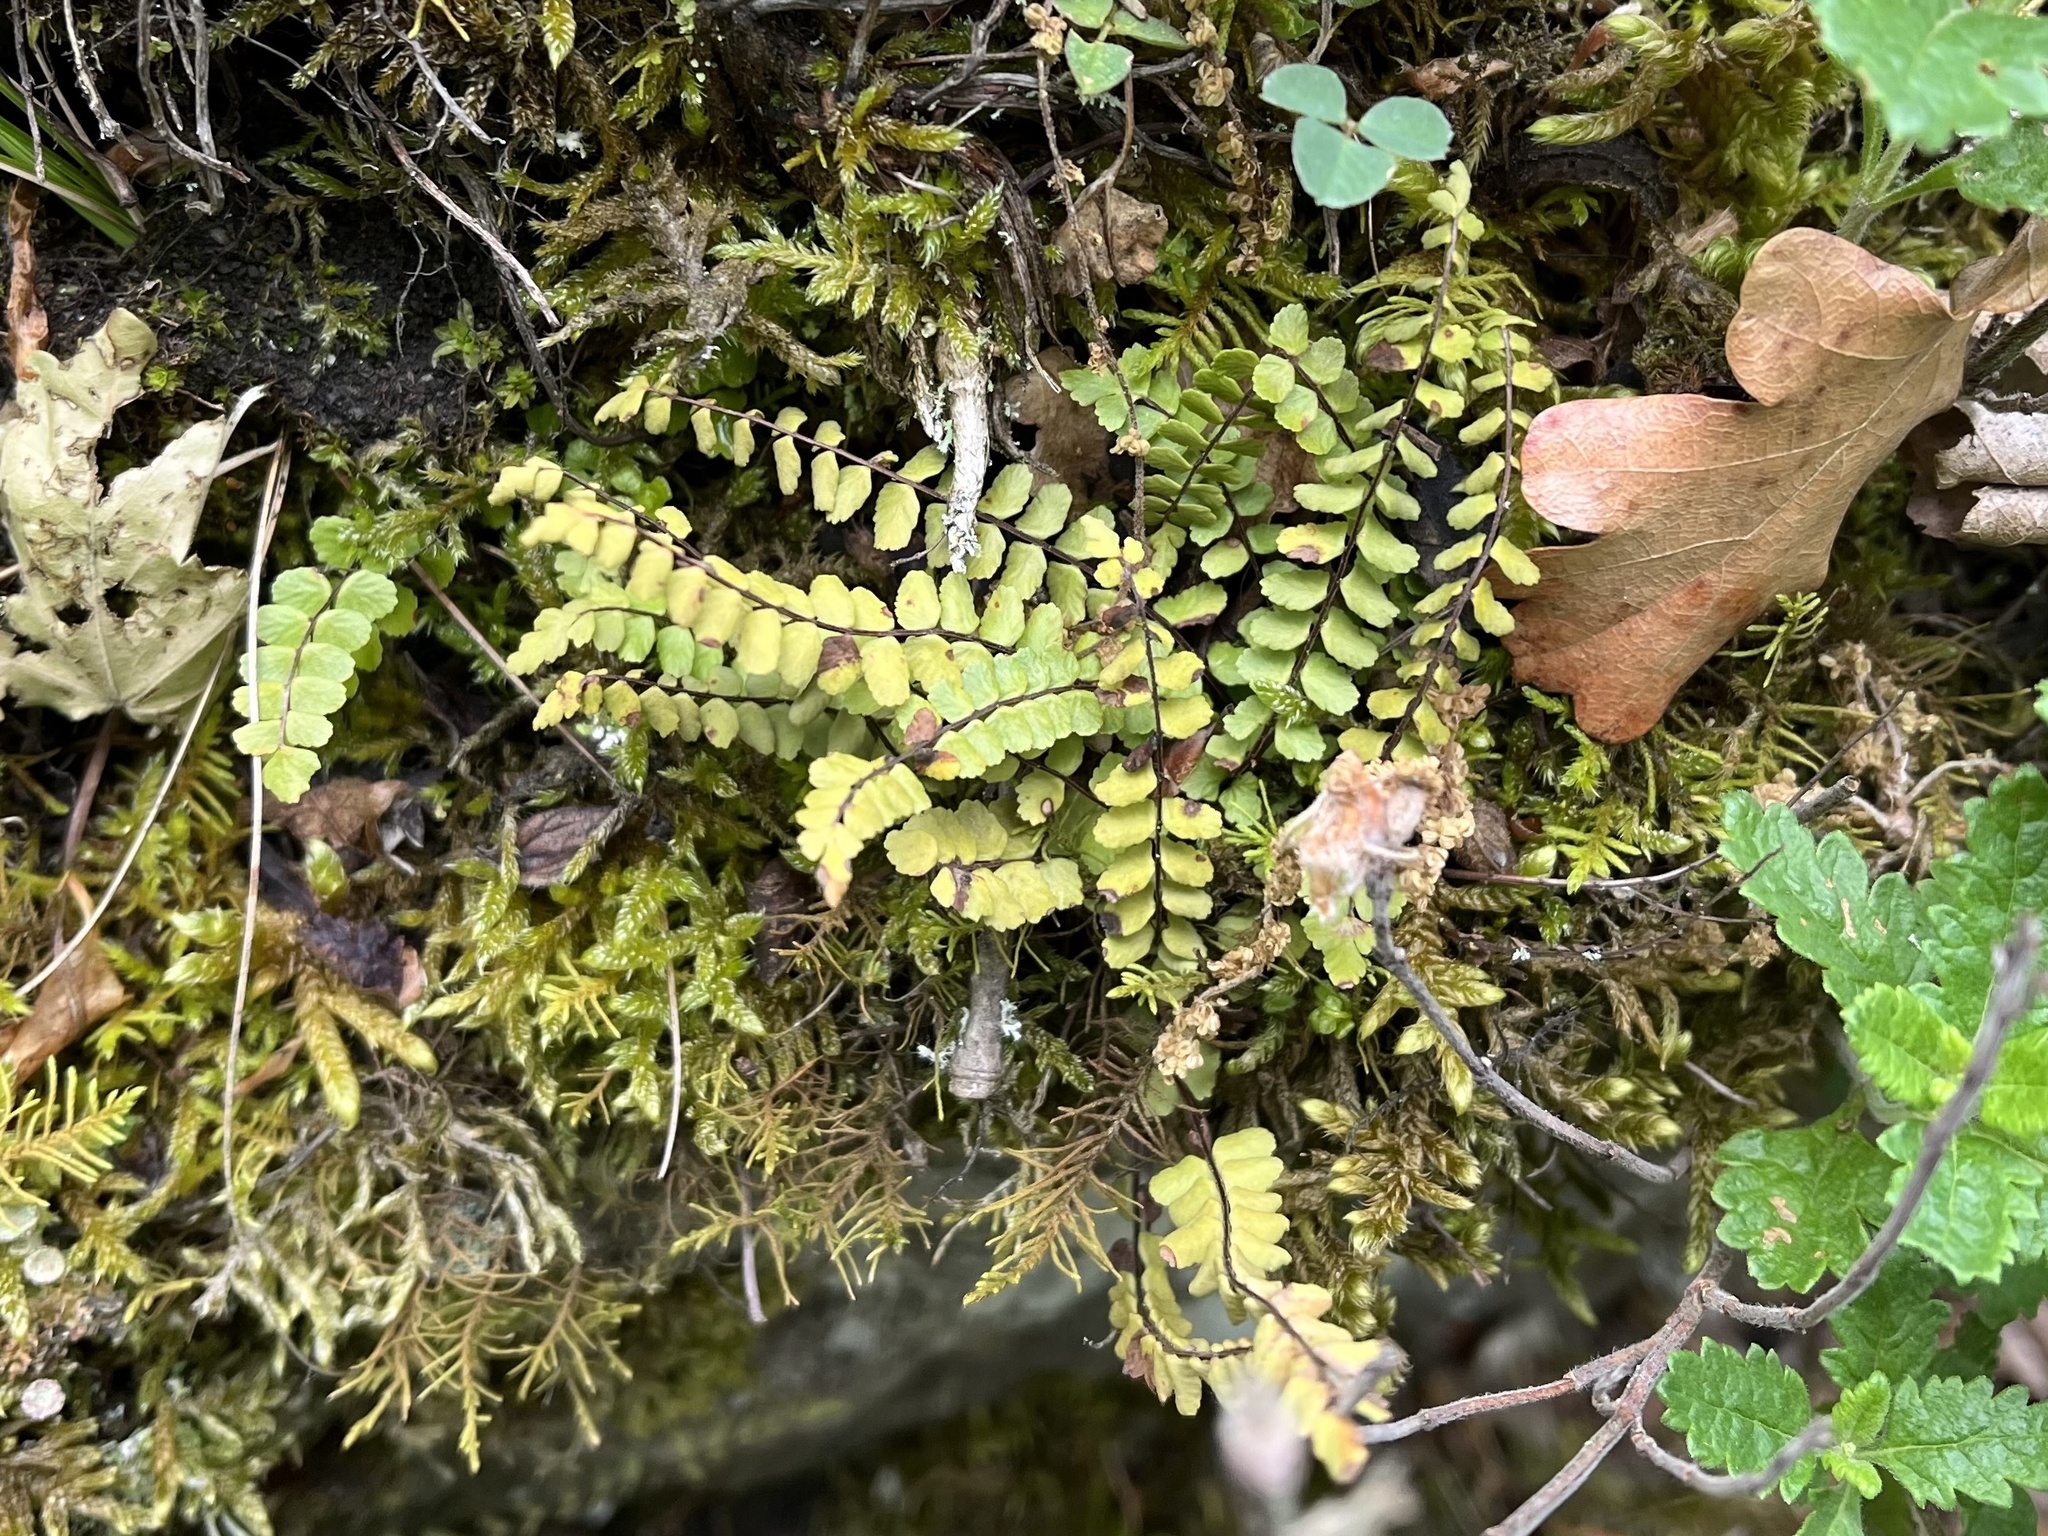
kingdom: Plantae
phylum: Tracheophyta
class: Polypodiopsida
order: Polypodiales
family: Aspleniaceae
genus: Asplenium
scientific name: Asplenium trichomanes
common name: Maidenhair spleenwort
